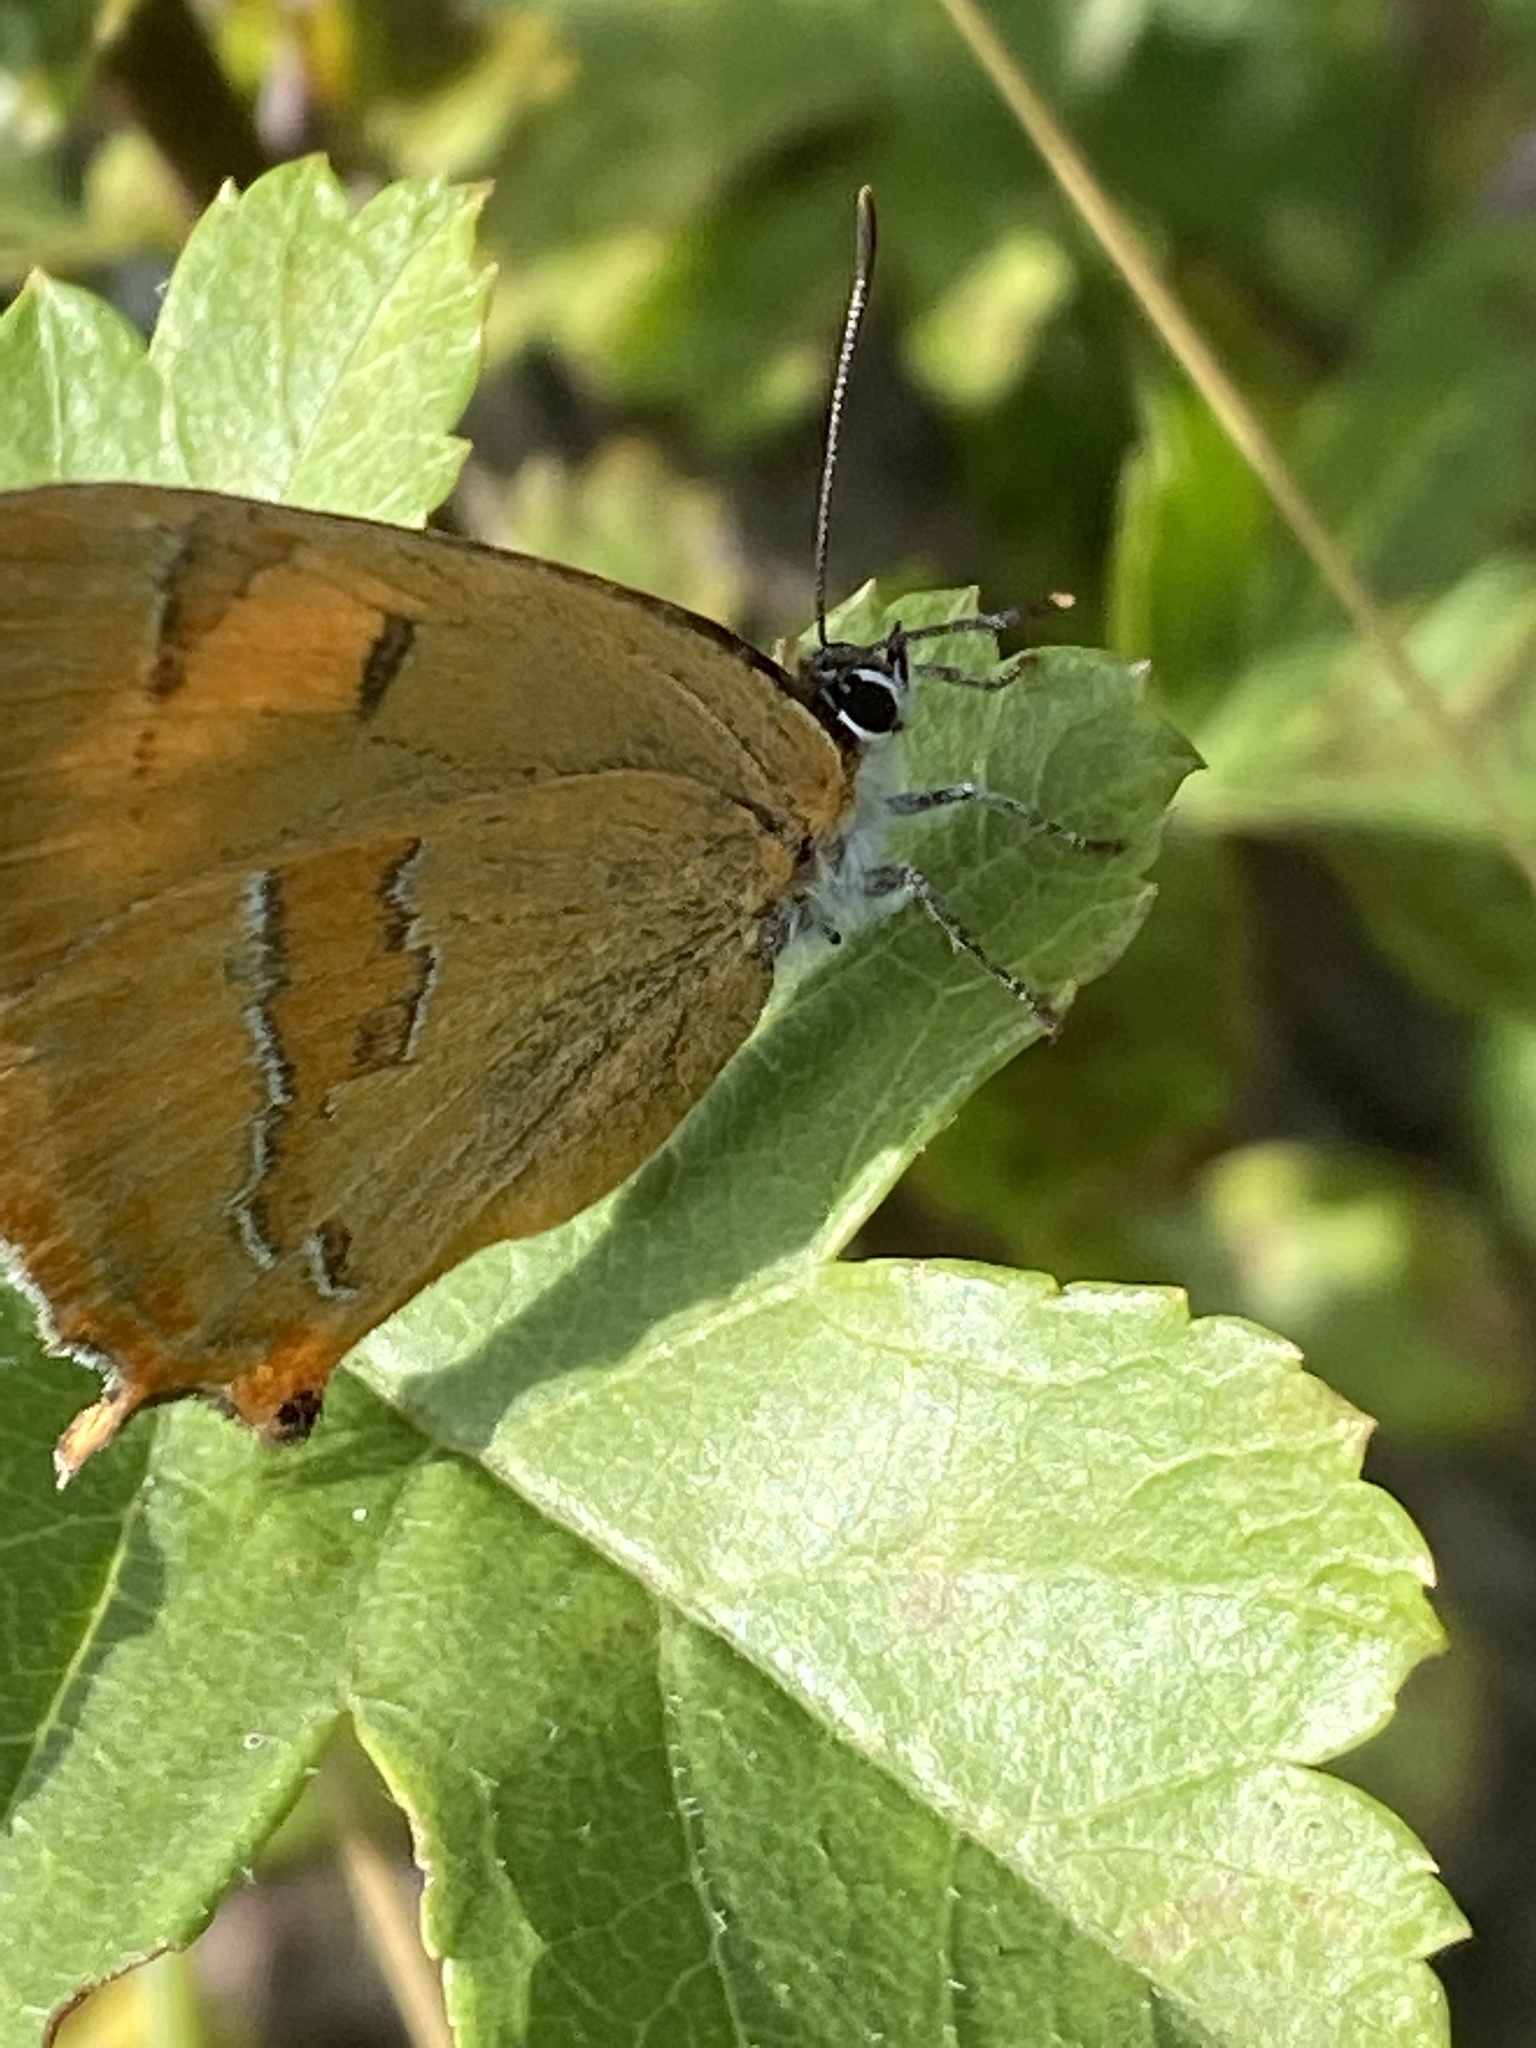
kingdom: Animalia
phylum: Arthropoda
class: Insecta
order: Lepidoptera
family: Lycaenidae
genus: Thecla
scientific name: Thecla betulae
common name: Brown hairstreak
